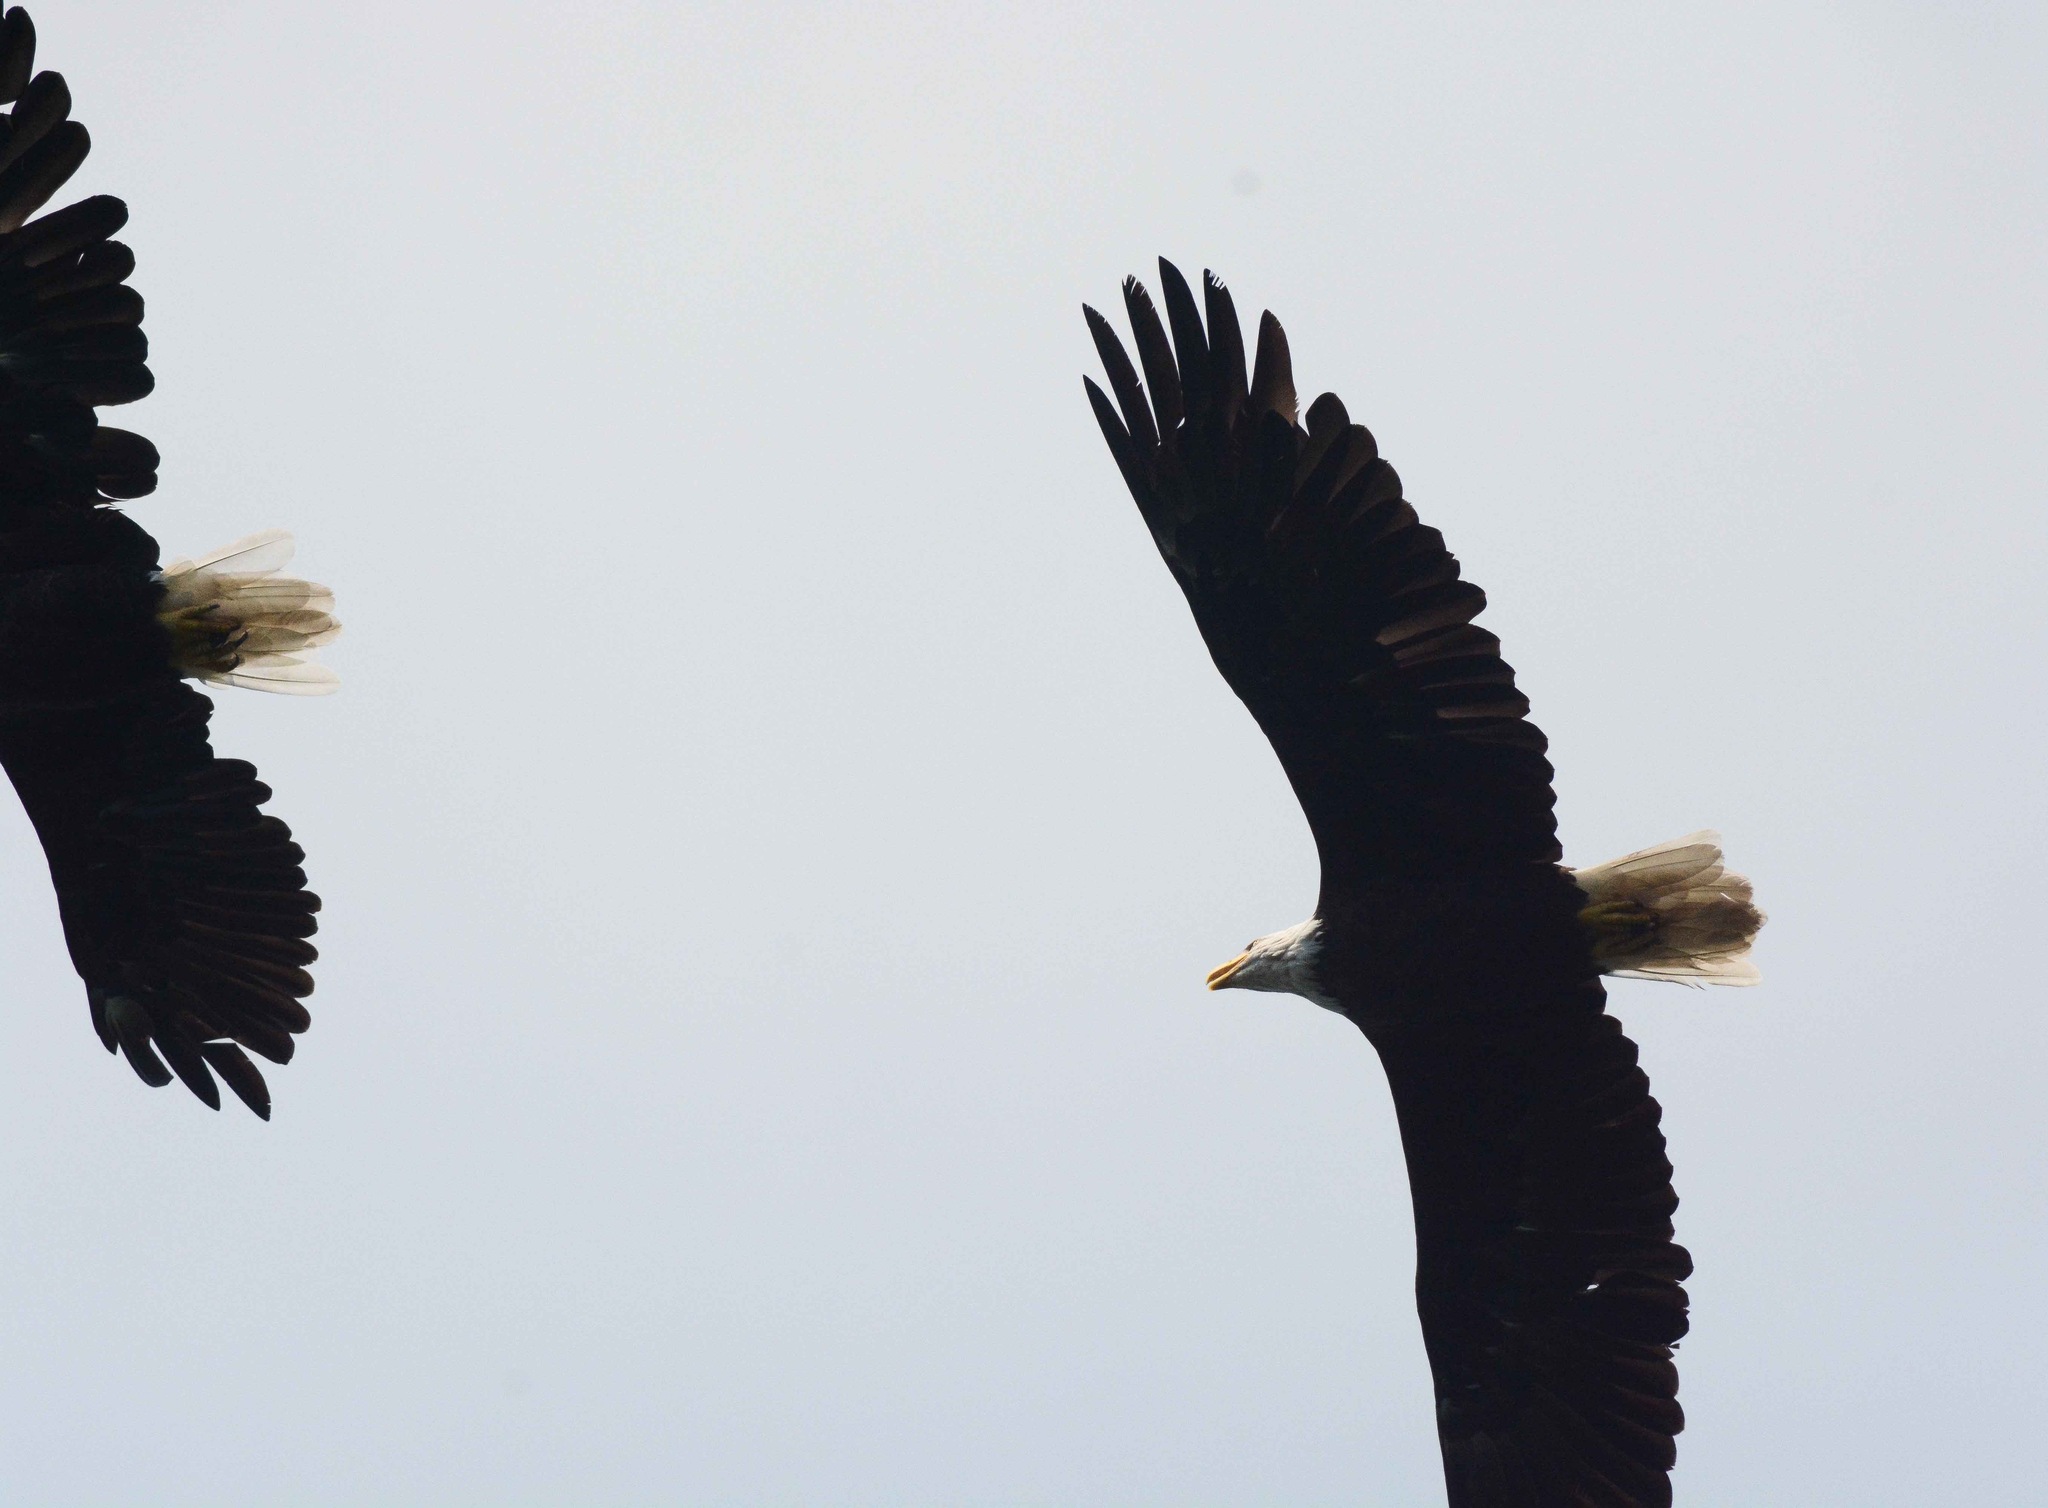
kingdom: Animalia
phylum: Chordata
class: Aves
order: Accipitriformes
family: Accipitridae
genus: Haliaeetus
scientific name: Haliaeetus leucocephalus
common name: Bald eagle
